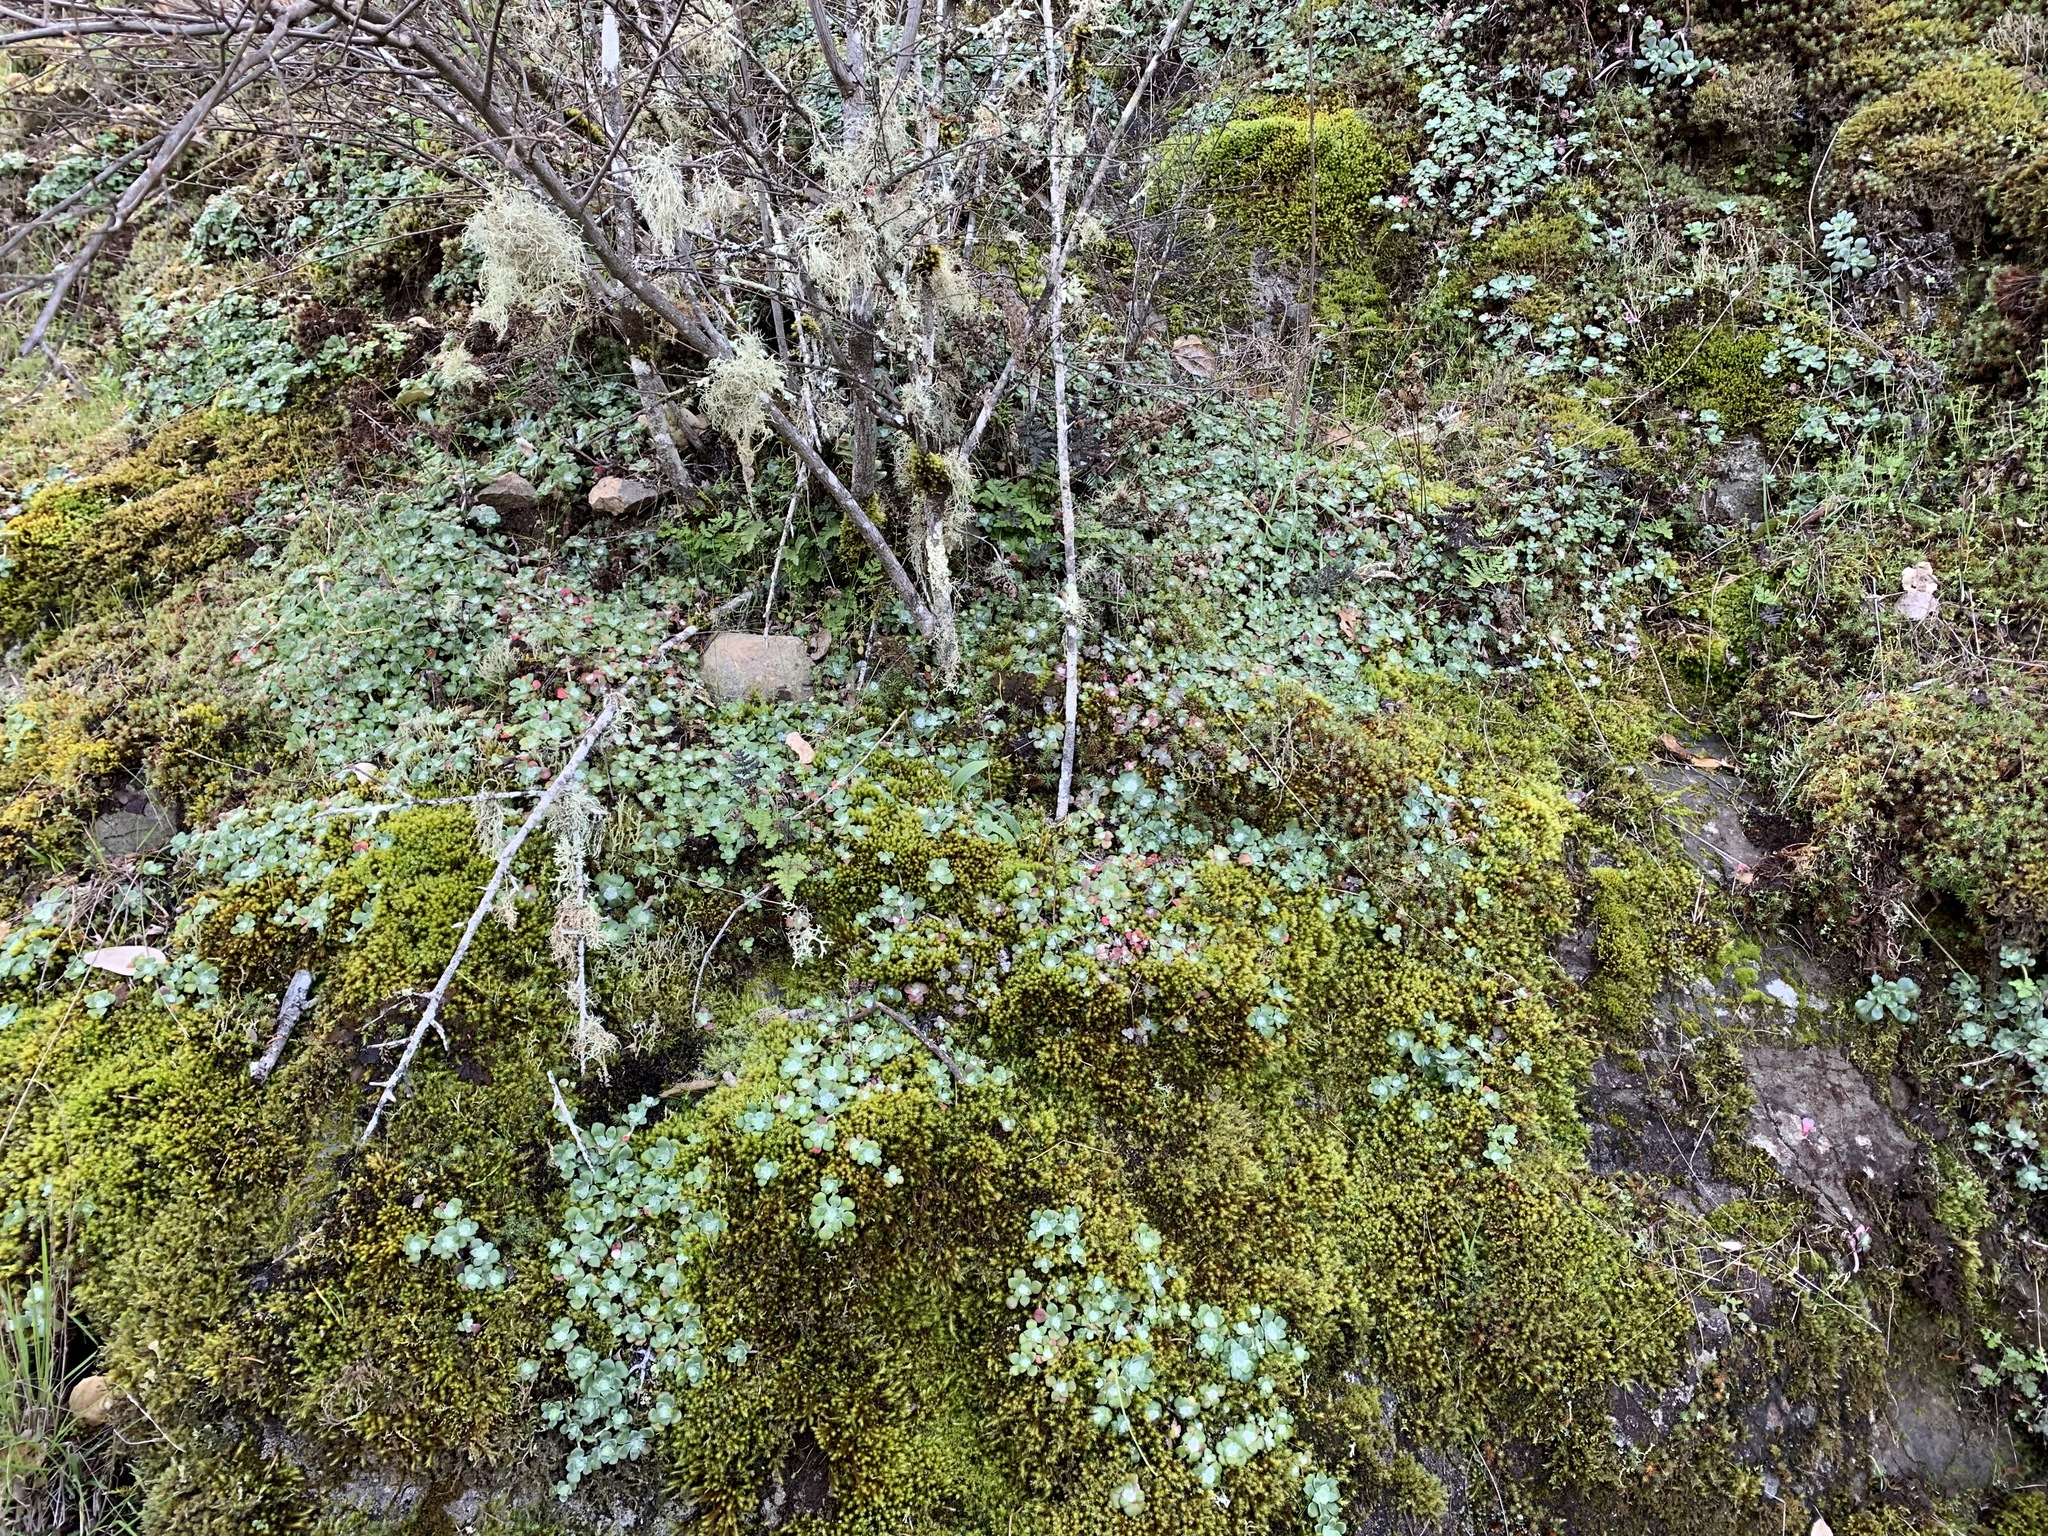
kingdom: Plantae
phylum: Tracheophyta
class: Magnoliopsida
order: Saxifragales
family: Crassulaceae
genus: Sedum
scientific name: Sedum spathulifolium
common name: Colorado stonecrop
